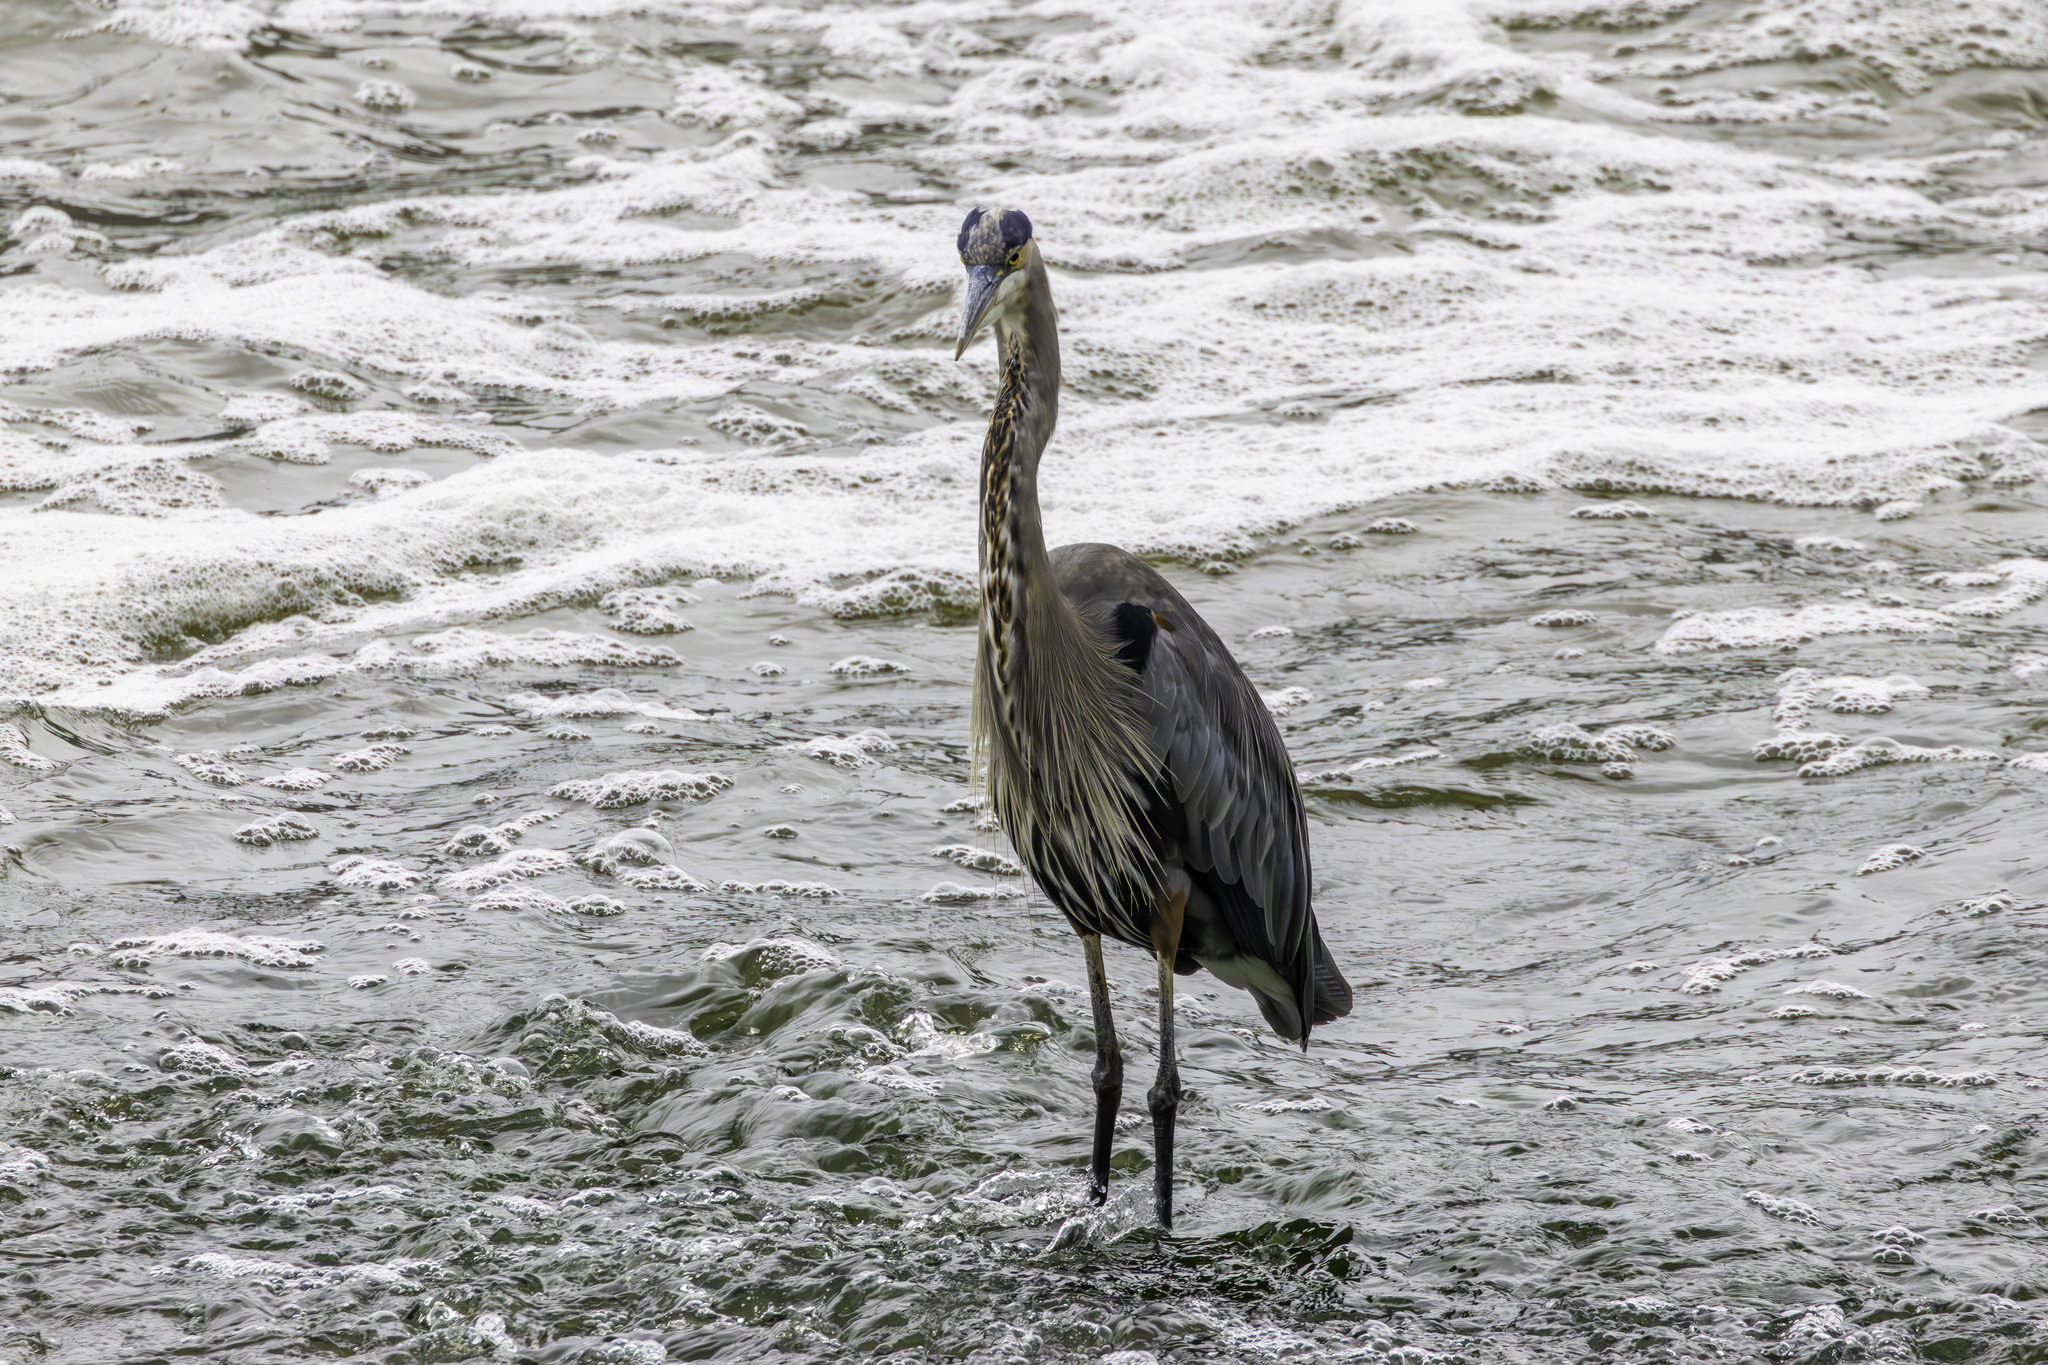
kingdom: Animalia
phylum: Chordata
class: Aves
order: Pelecaniformes
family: Ardeidae
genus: Ardea
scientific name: Ardea herodias
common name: Great blue heron
